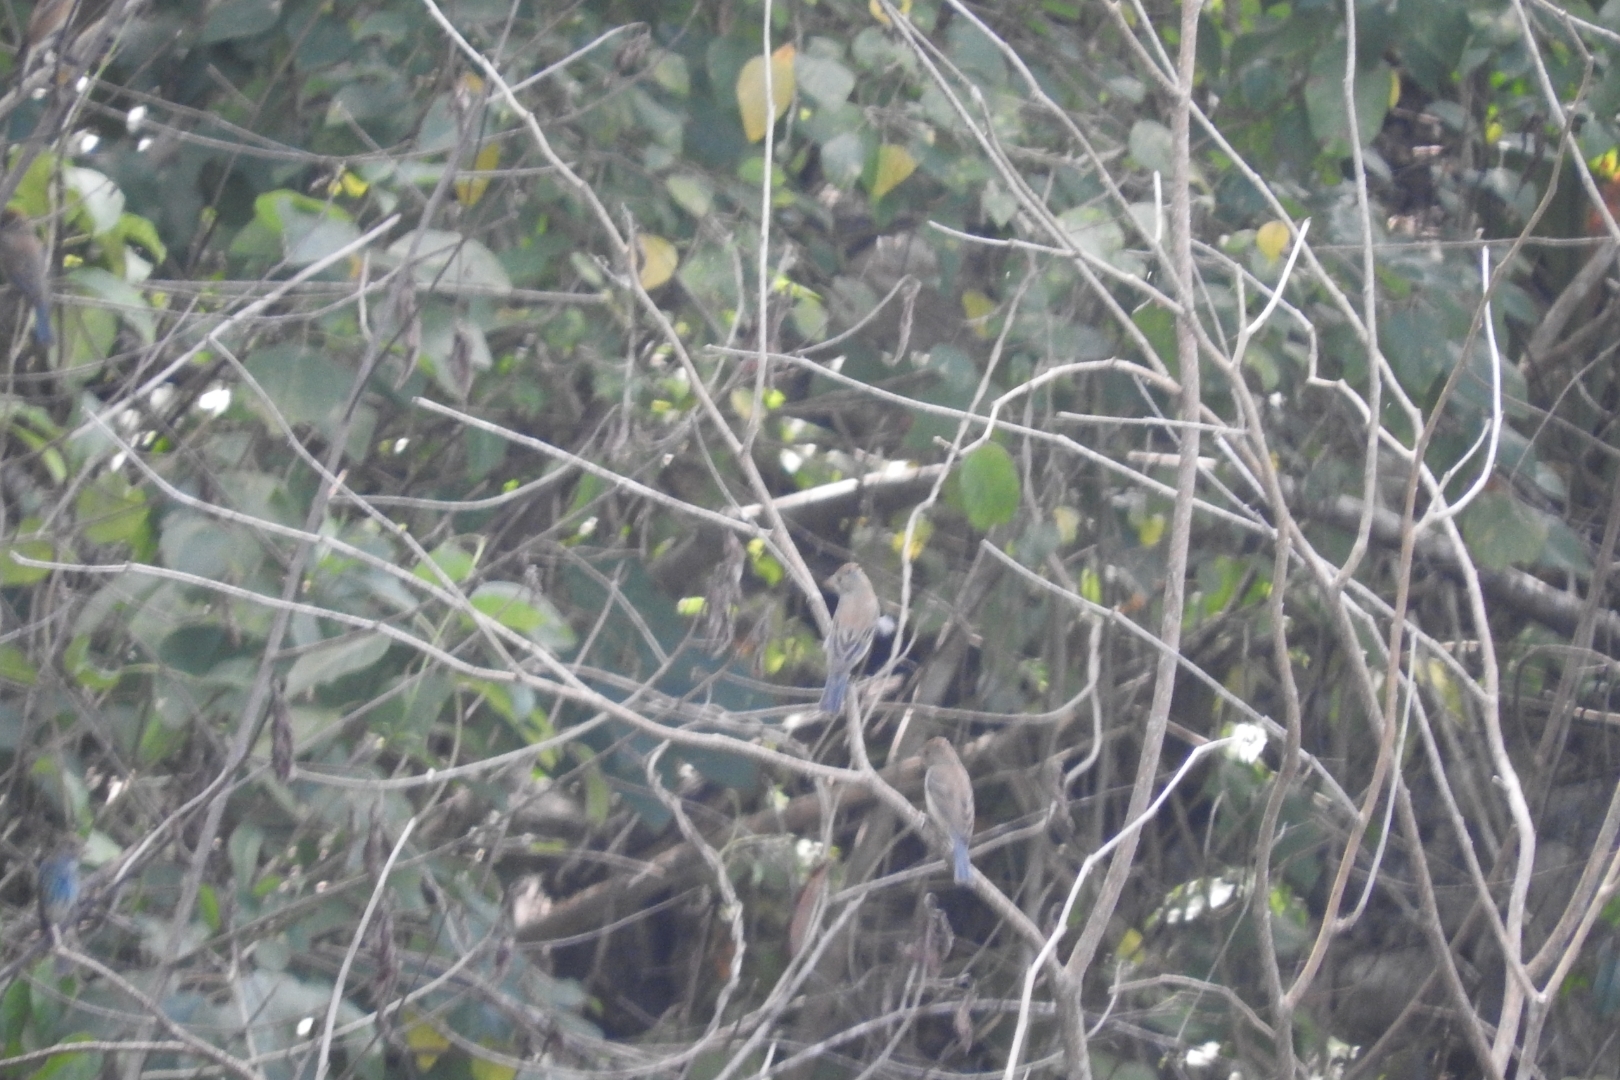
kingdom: Animalia
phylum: Chordata
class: Aves
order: Passeriformes
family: Cardinalidae
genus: Passerina
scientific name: Passerina cyanea
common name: Indigo bunting
